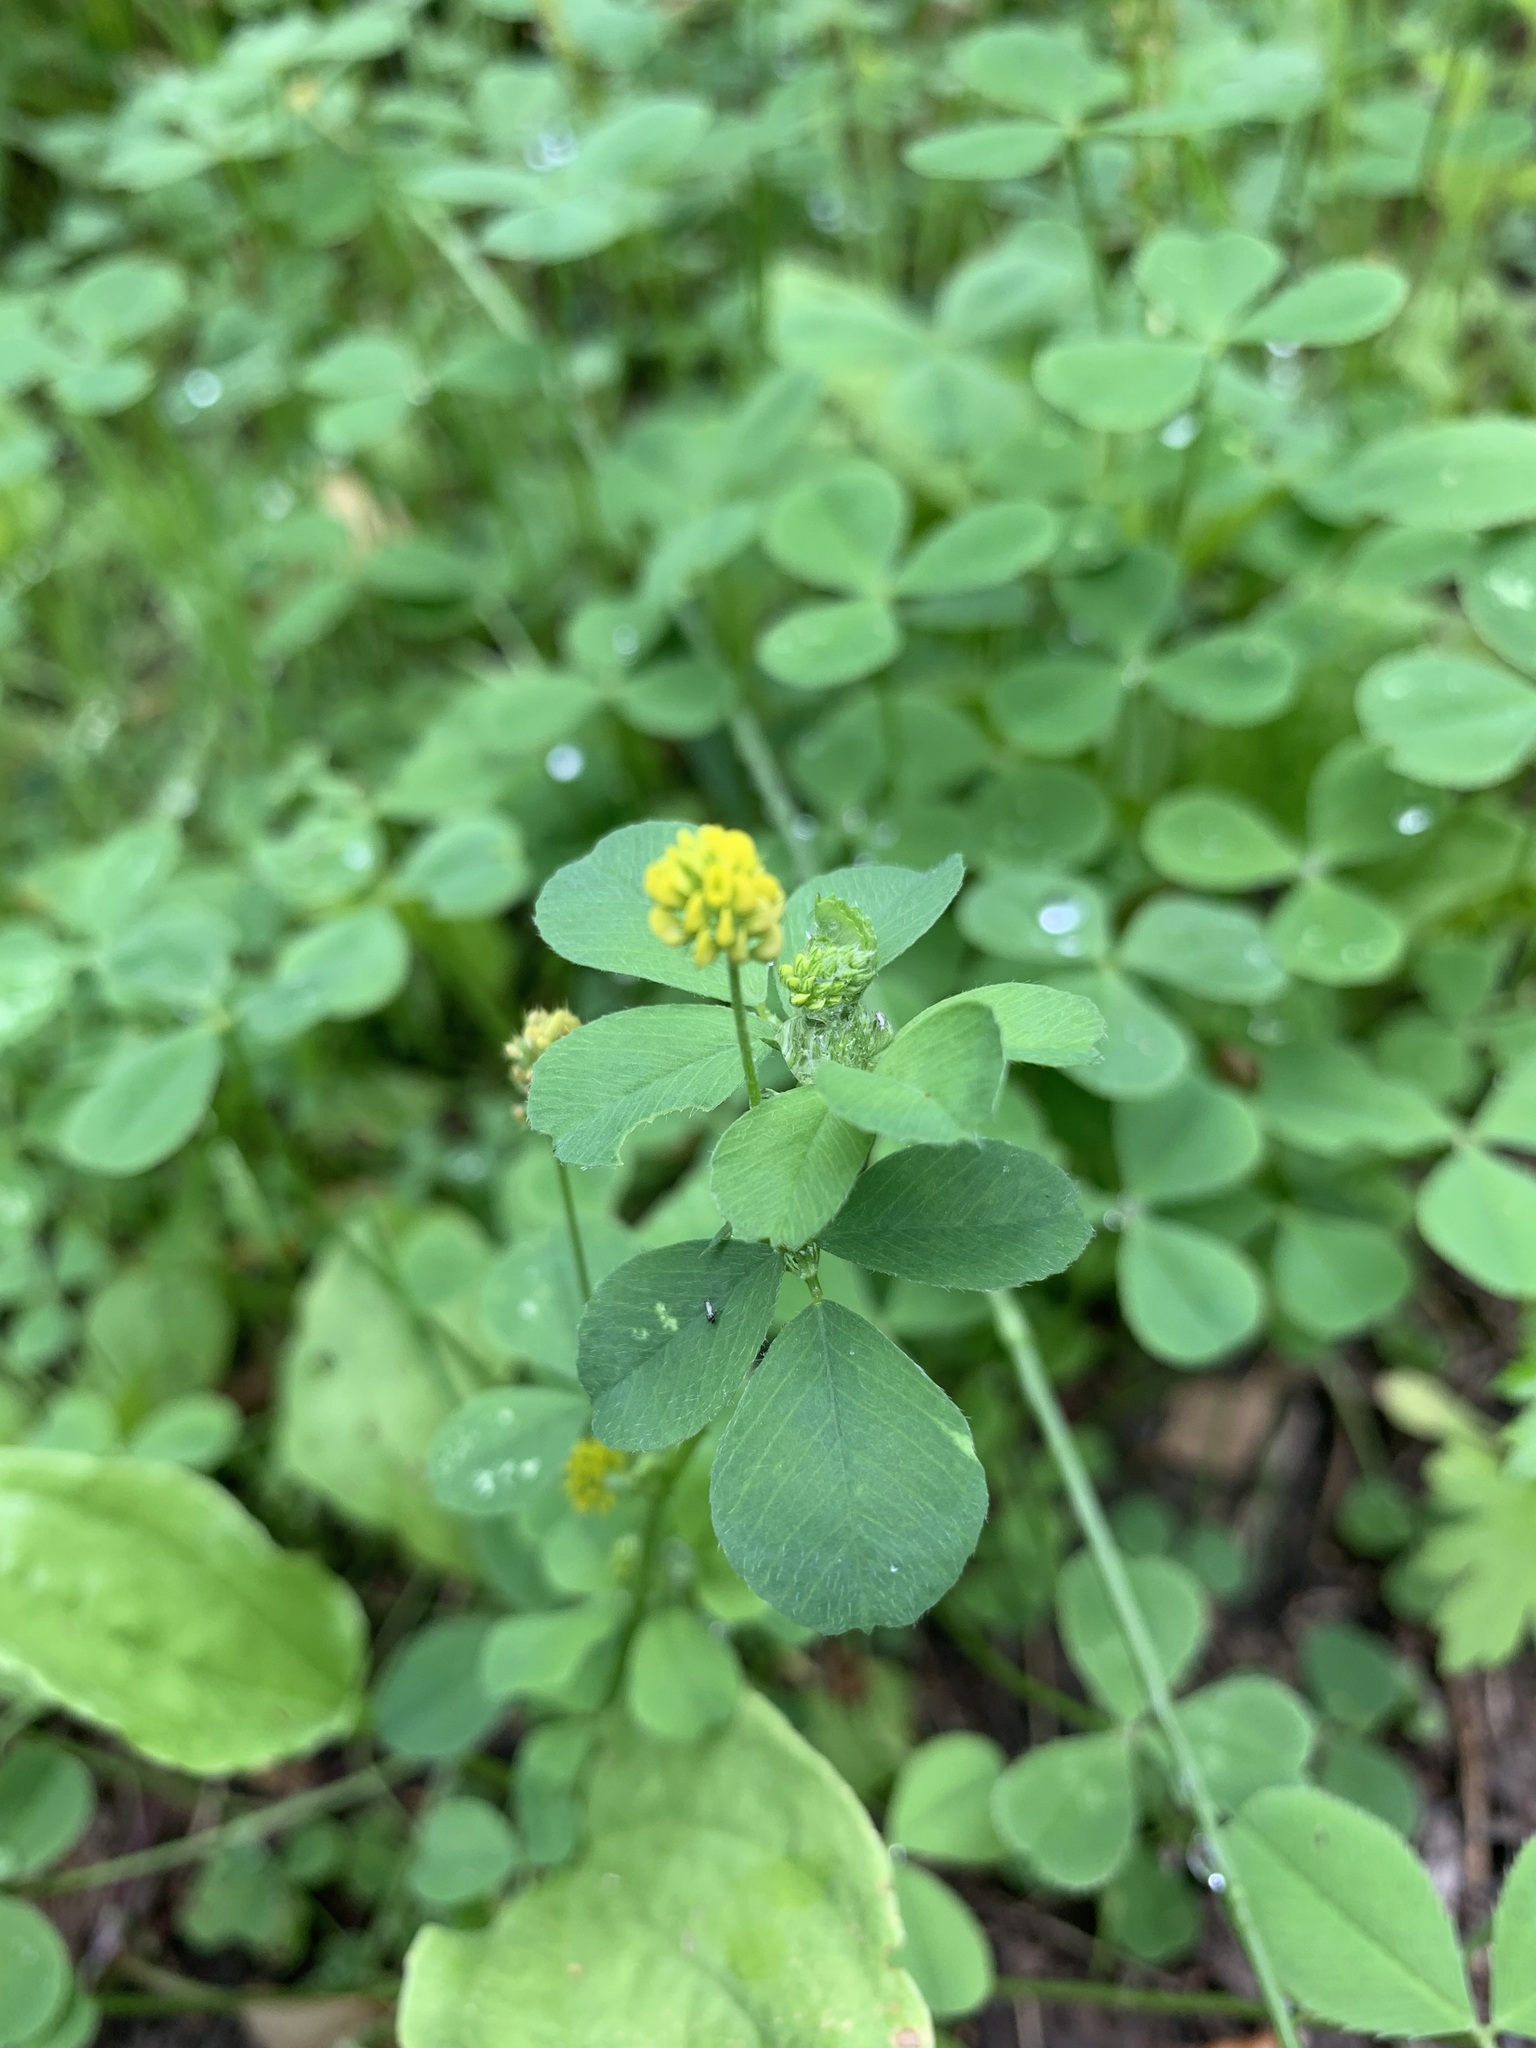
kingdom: Plantae
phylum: Tracheophyta
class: Magnoliopsida
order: Fabales
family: Fabaceae
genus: Medicago
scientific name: Medicago lupulina
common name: Black medick
